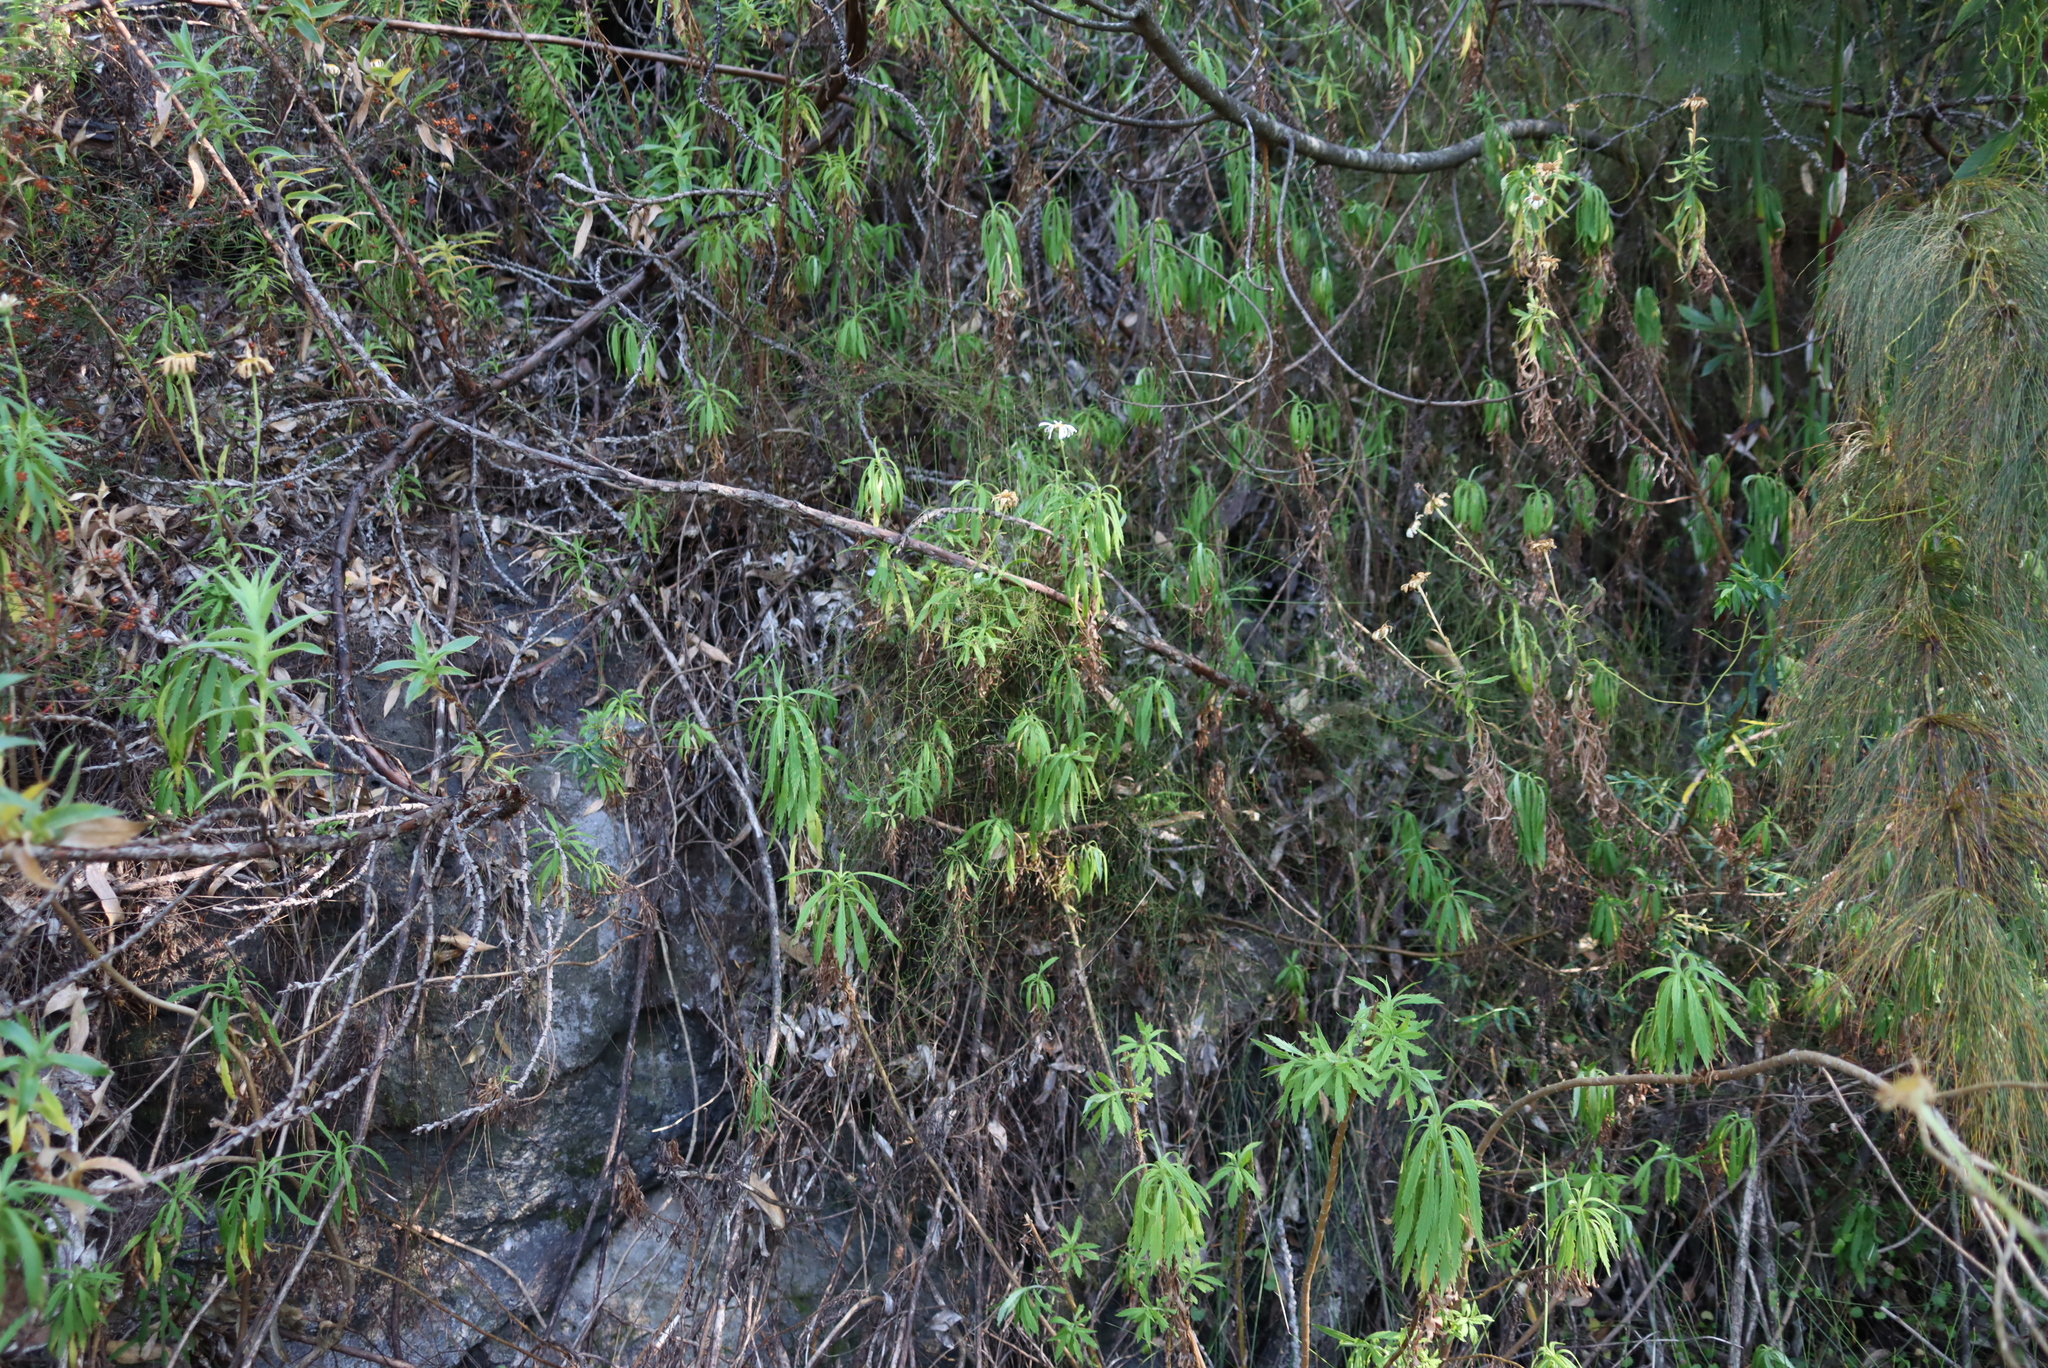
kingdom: Plantae
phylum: Tracheophyta
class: Magnoliopsida
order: Asterales
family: Asteraceae
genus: Osmitopsis
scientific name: Osmitopsis osmitoides
